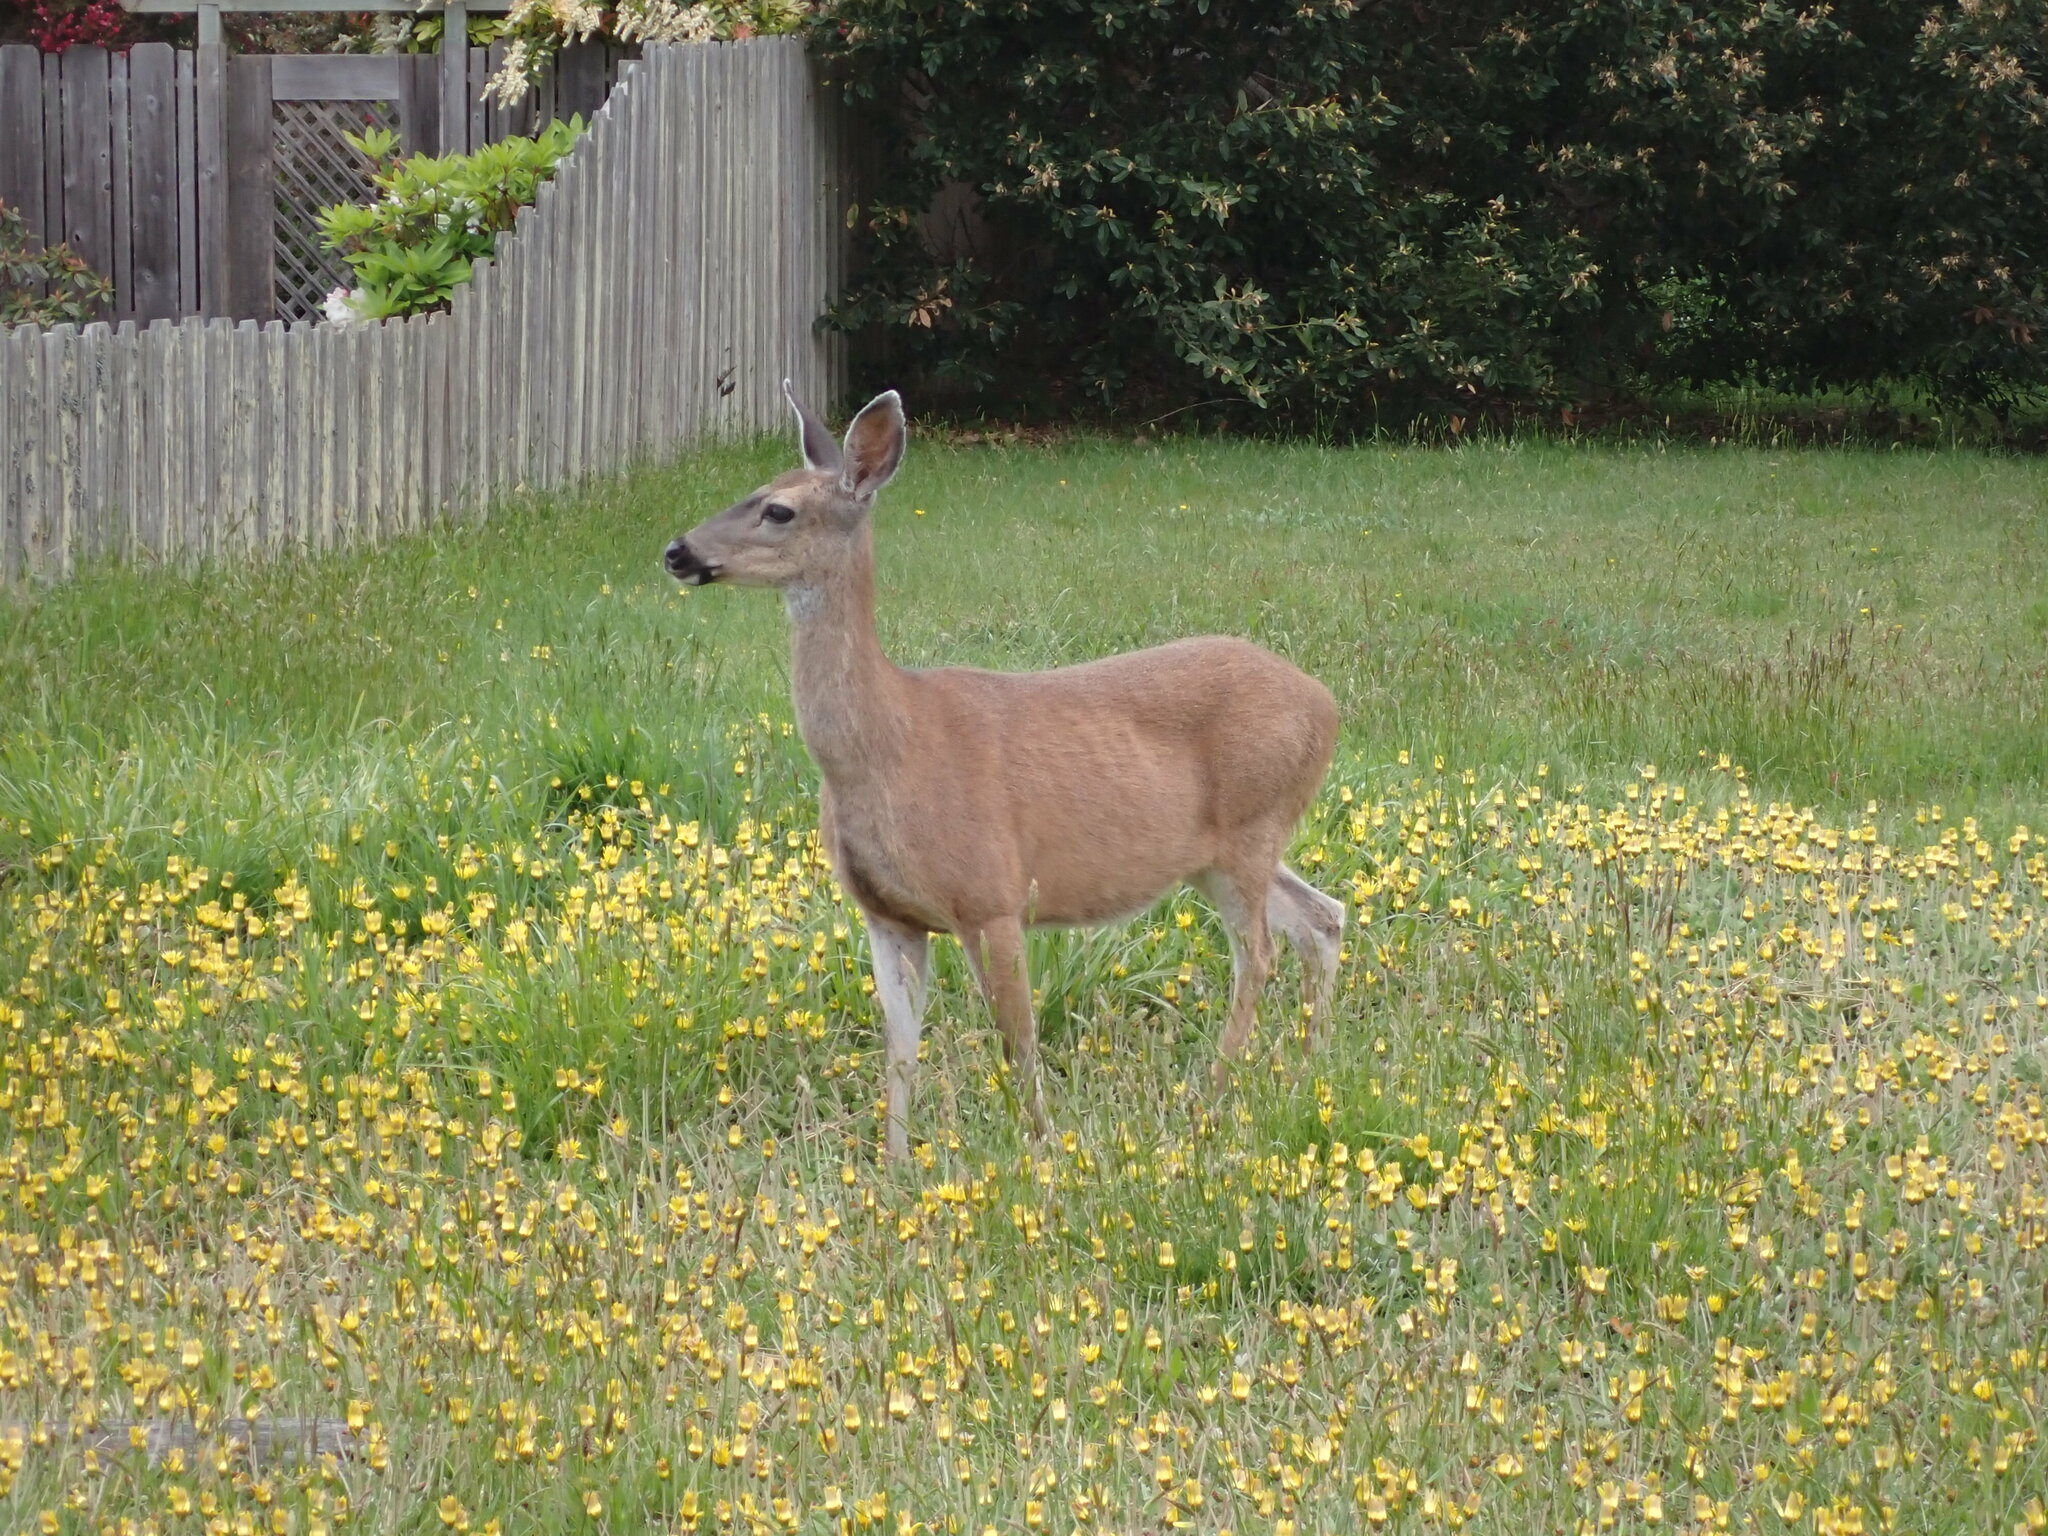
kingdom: Animalia
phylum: Chordata
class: Mammalia
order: Artiodactyla
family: Cervidae
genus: Odocoileus
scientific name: Odocoileus hemionus
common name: Mule deer
